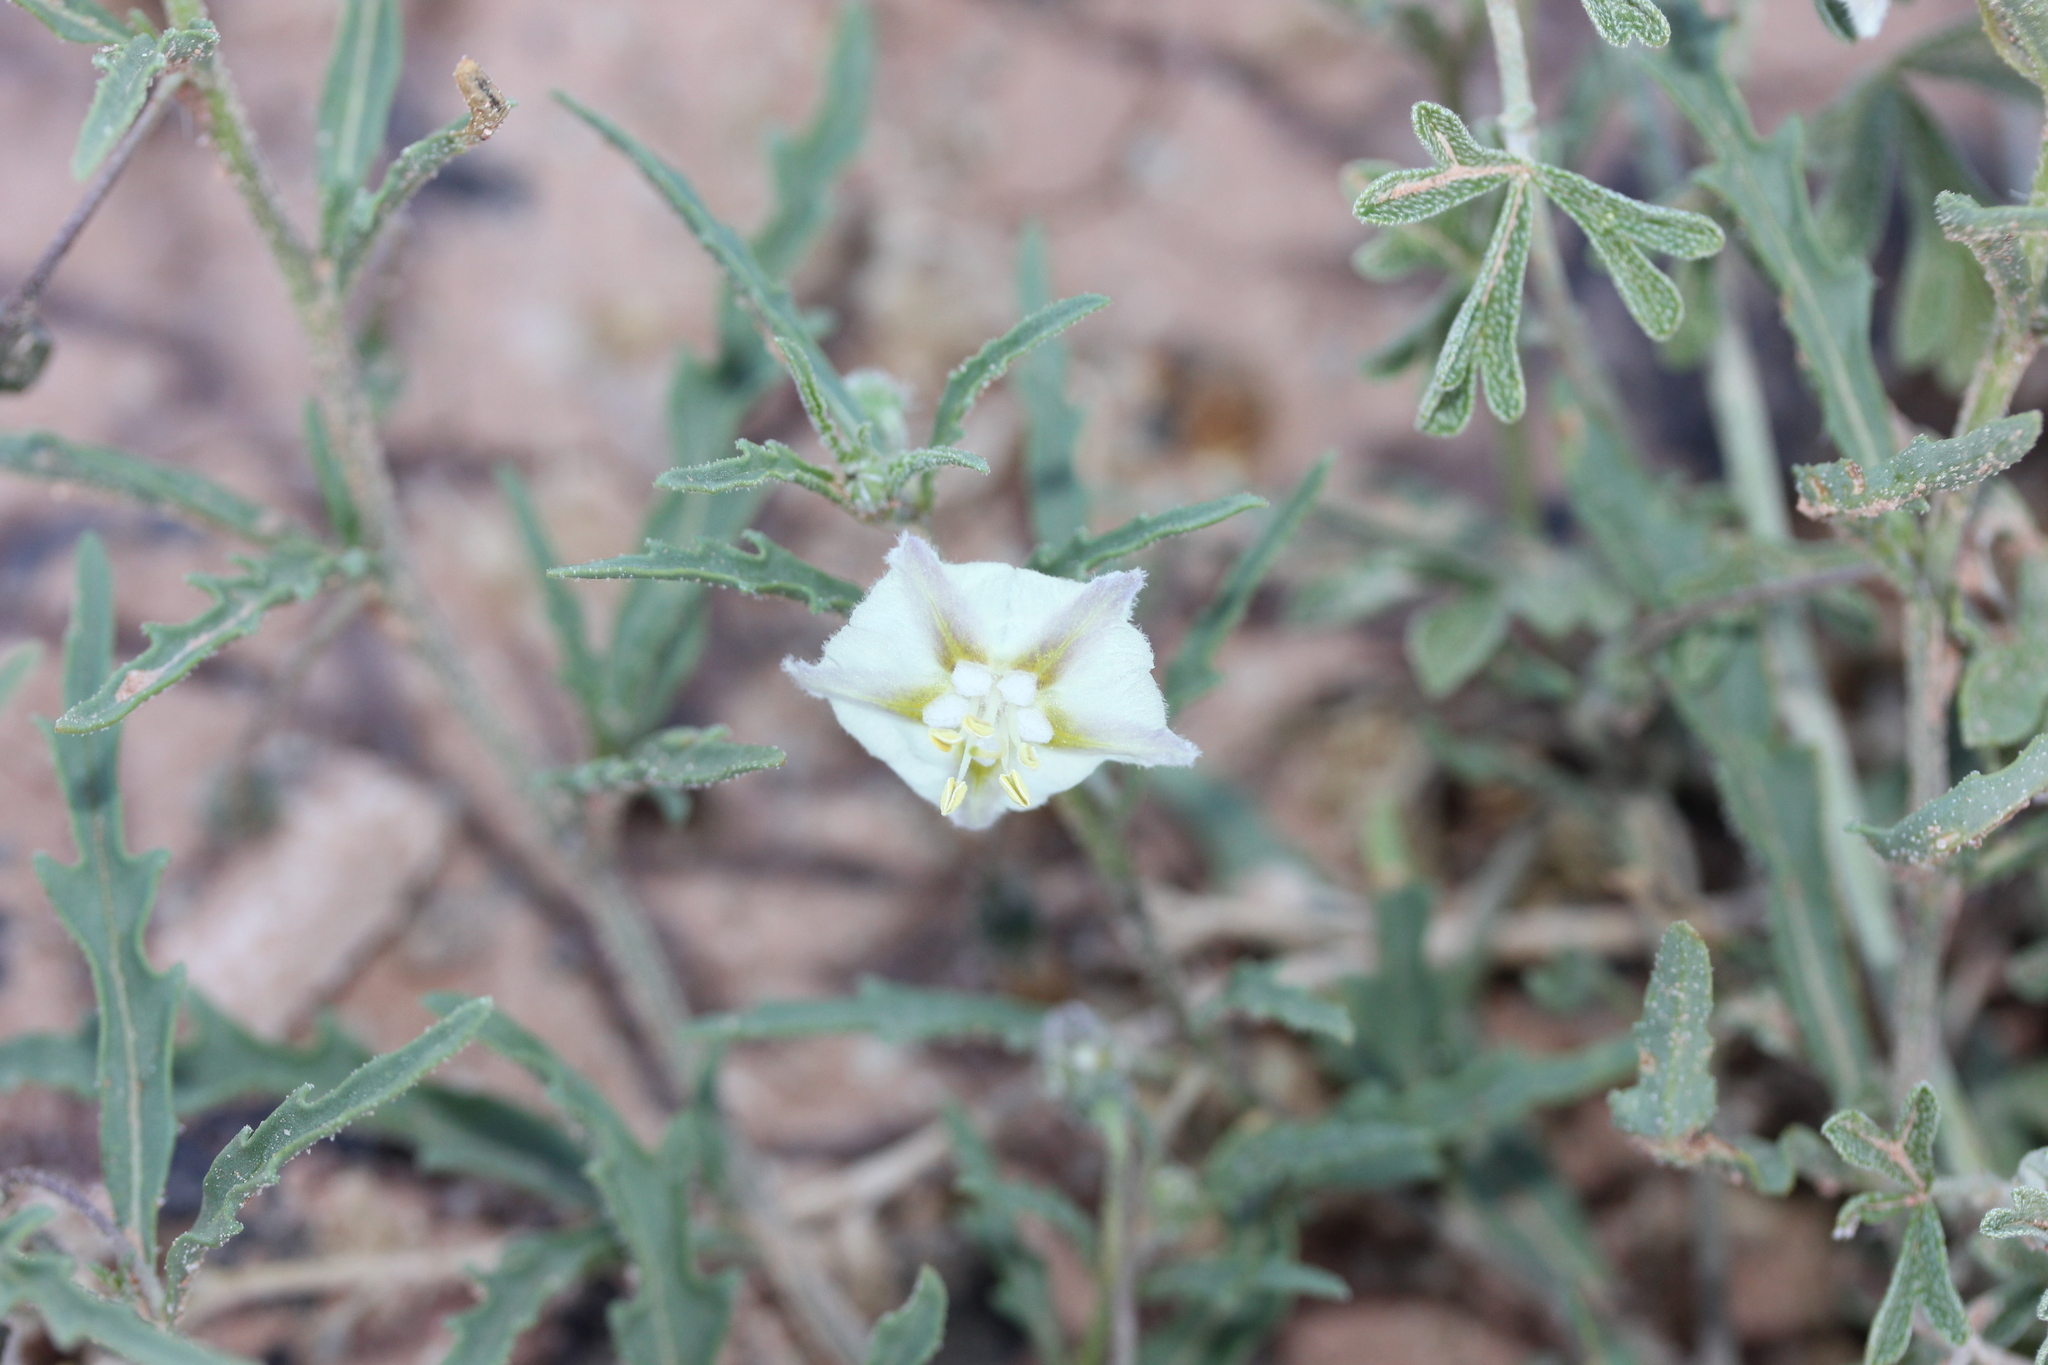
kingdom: Plantae
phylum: Tracheophyta
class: Magnoliopsida
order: Solanales
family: Solanaceae
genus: Chamaesaracha
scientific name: Chamaesaracha coronopus
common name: Smooth chamaesaracha
